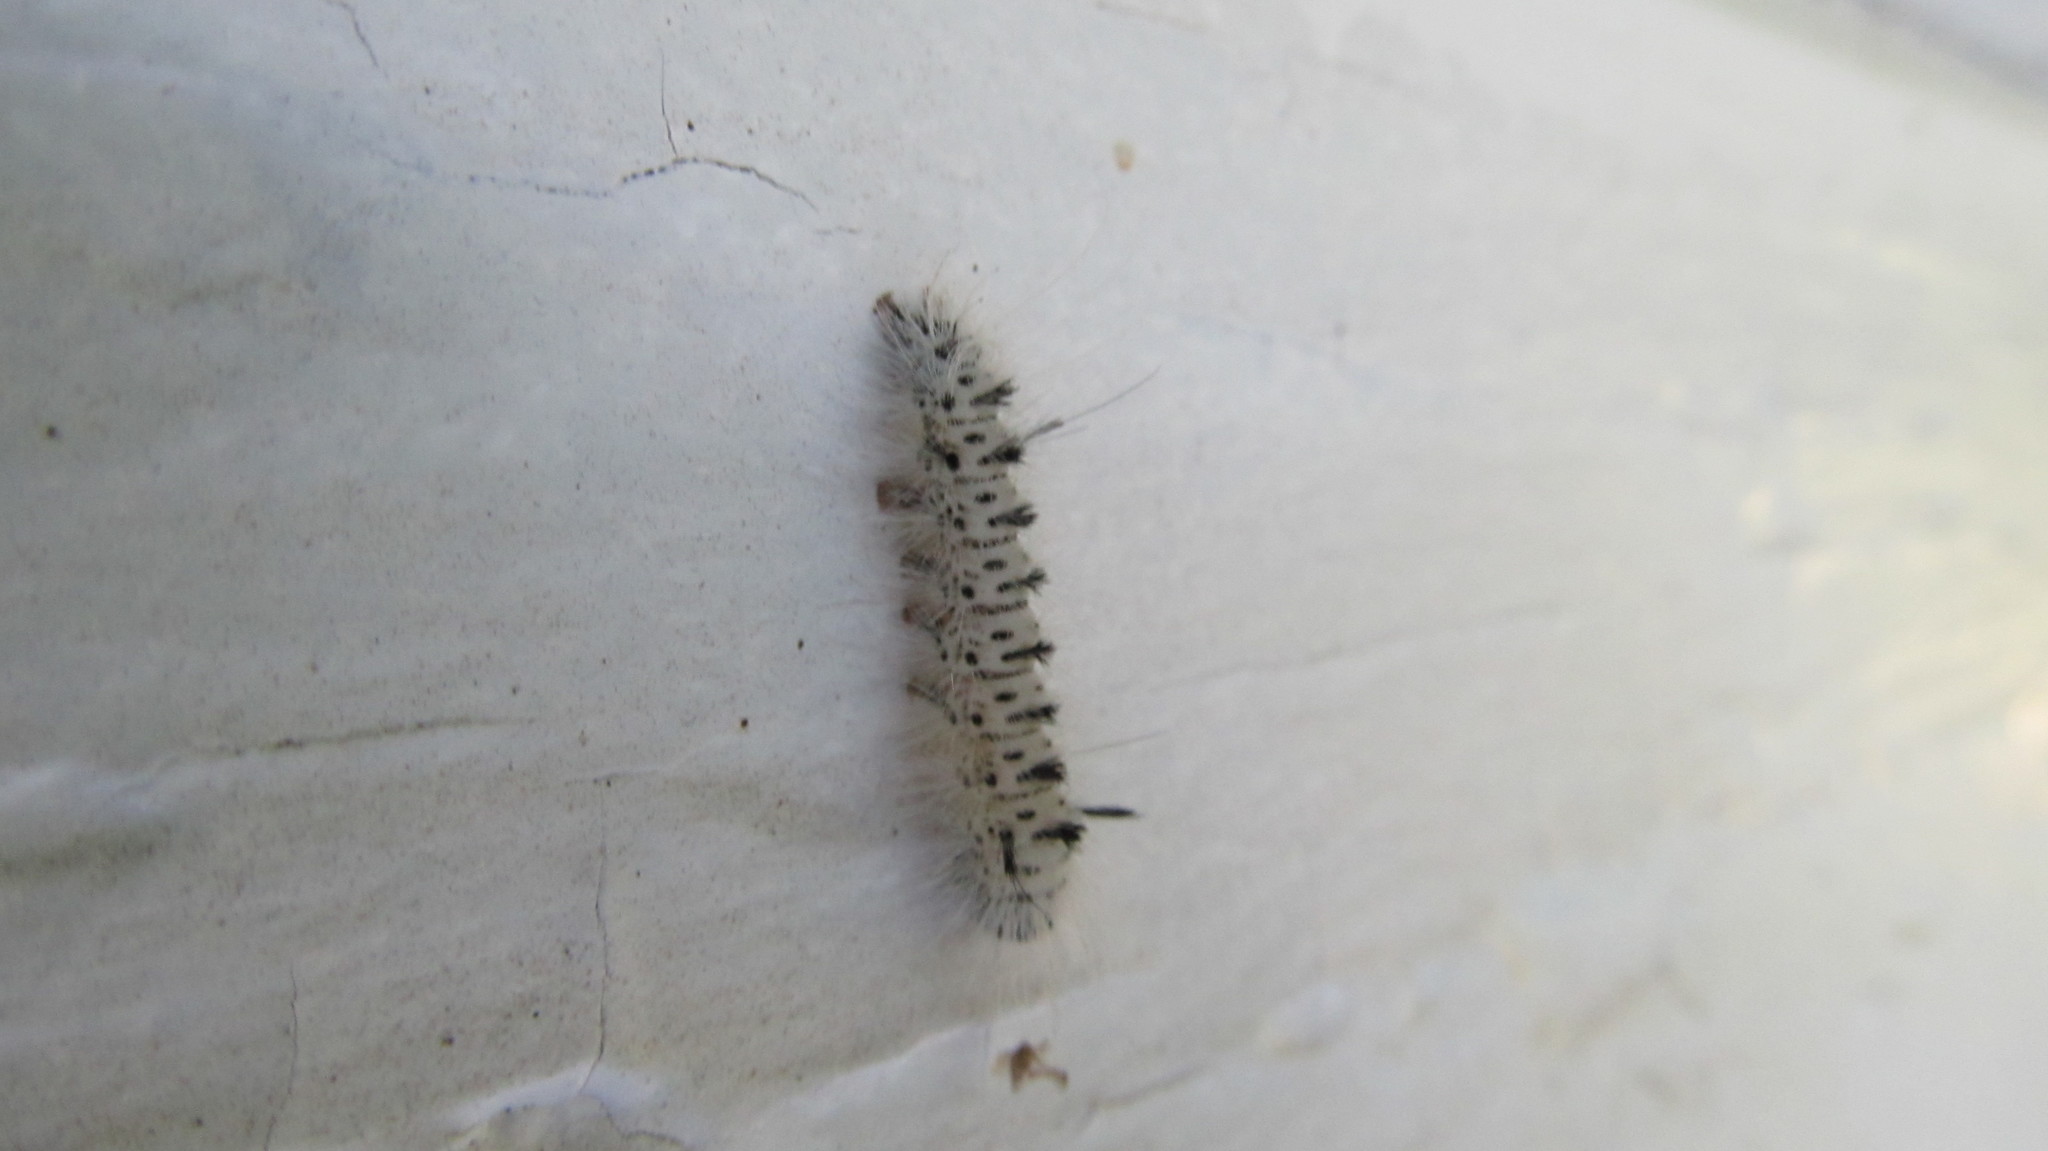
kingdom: Animalia
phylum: Arthropoda
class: Insecta
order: Lepidoptera
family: Erebidae
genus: Lophocampa
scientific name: Lophocampa caryae
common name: Hickory tussock moth
